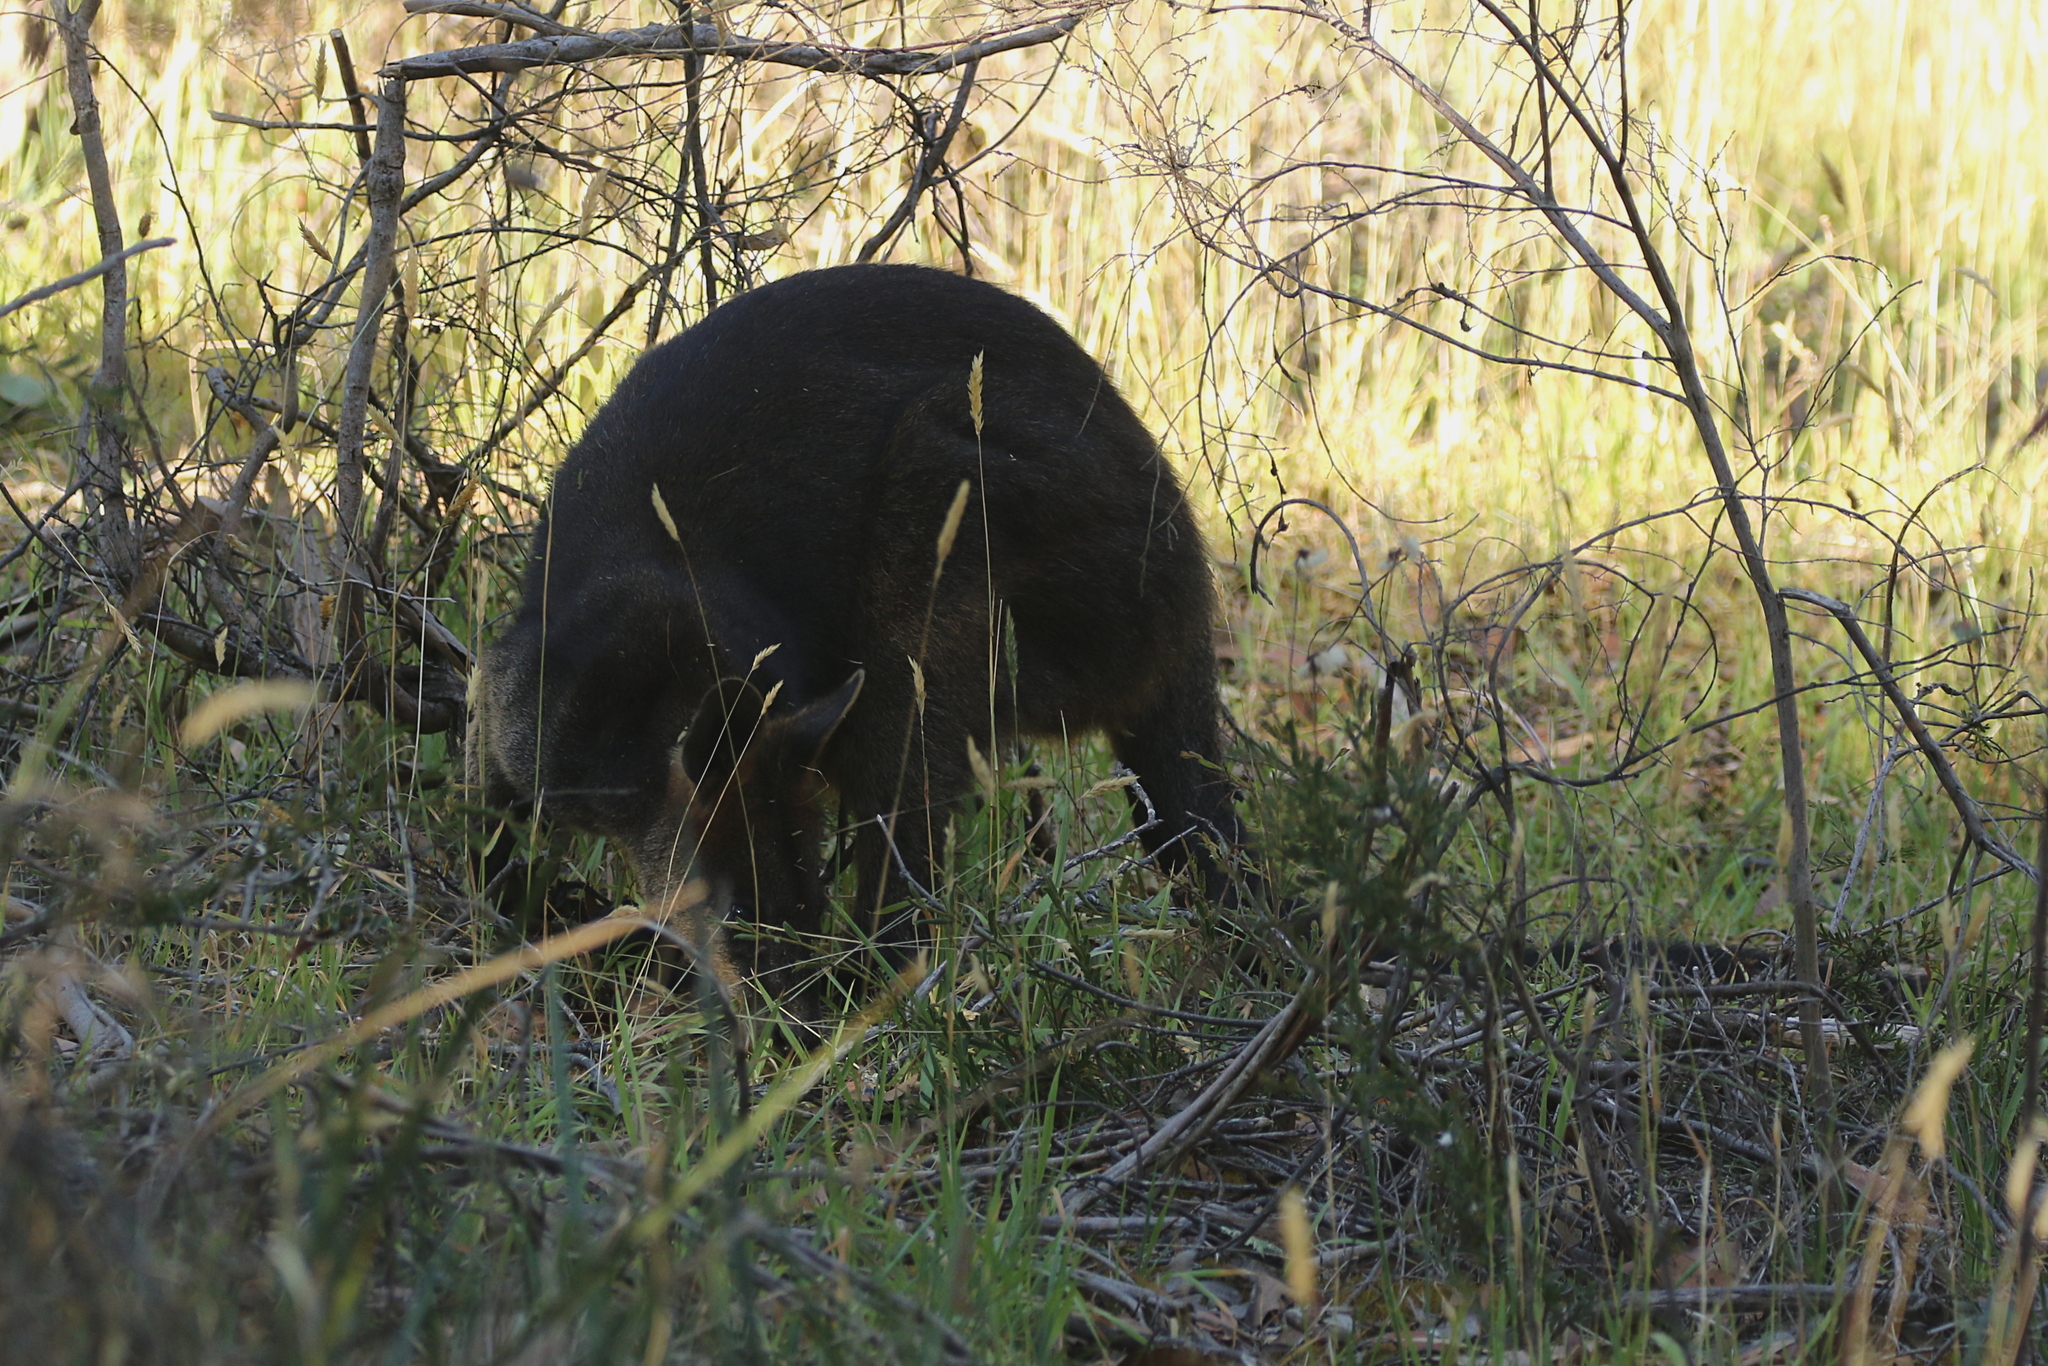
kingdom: Animalia
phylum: Chordata
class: Mammalia
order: Diprotodontia
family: Macropodidae
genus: Wallabia
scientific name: Wallabia bicolor
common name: Swamp wallaby
